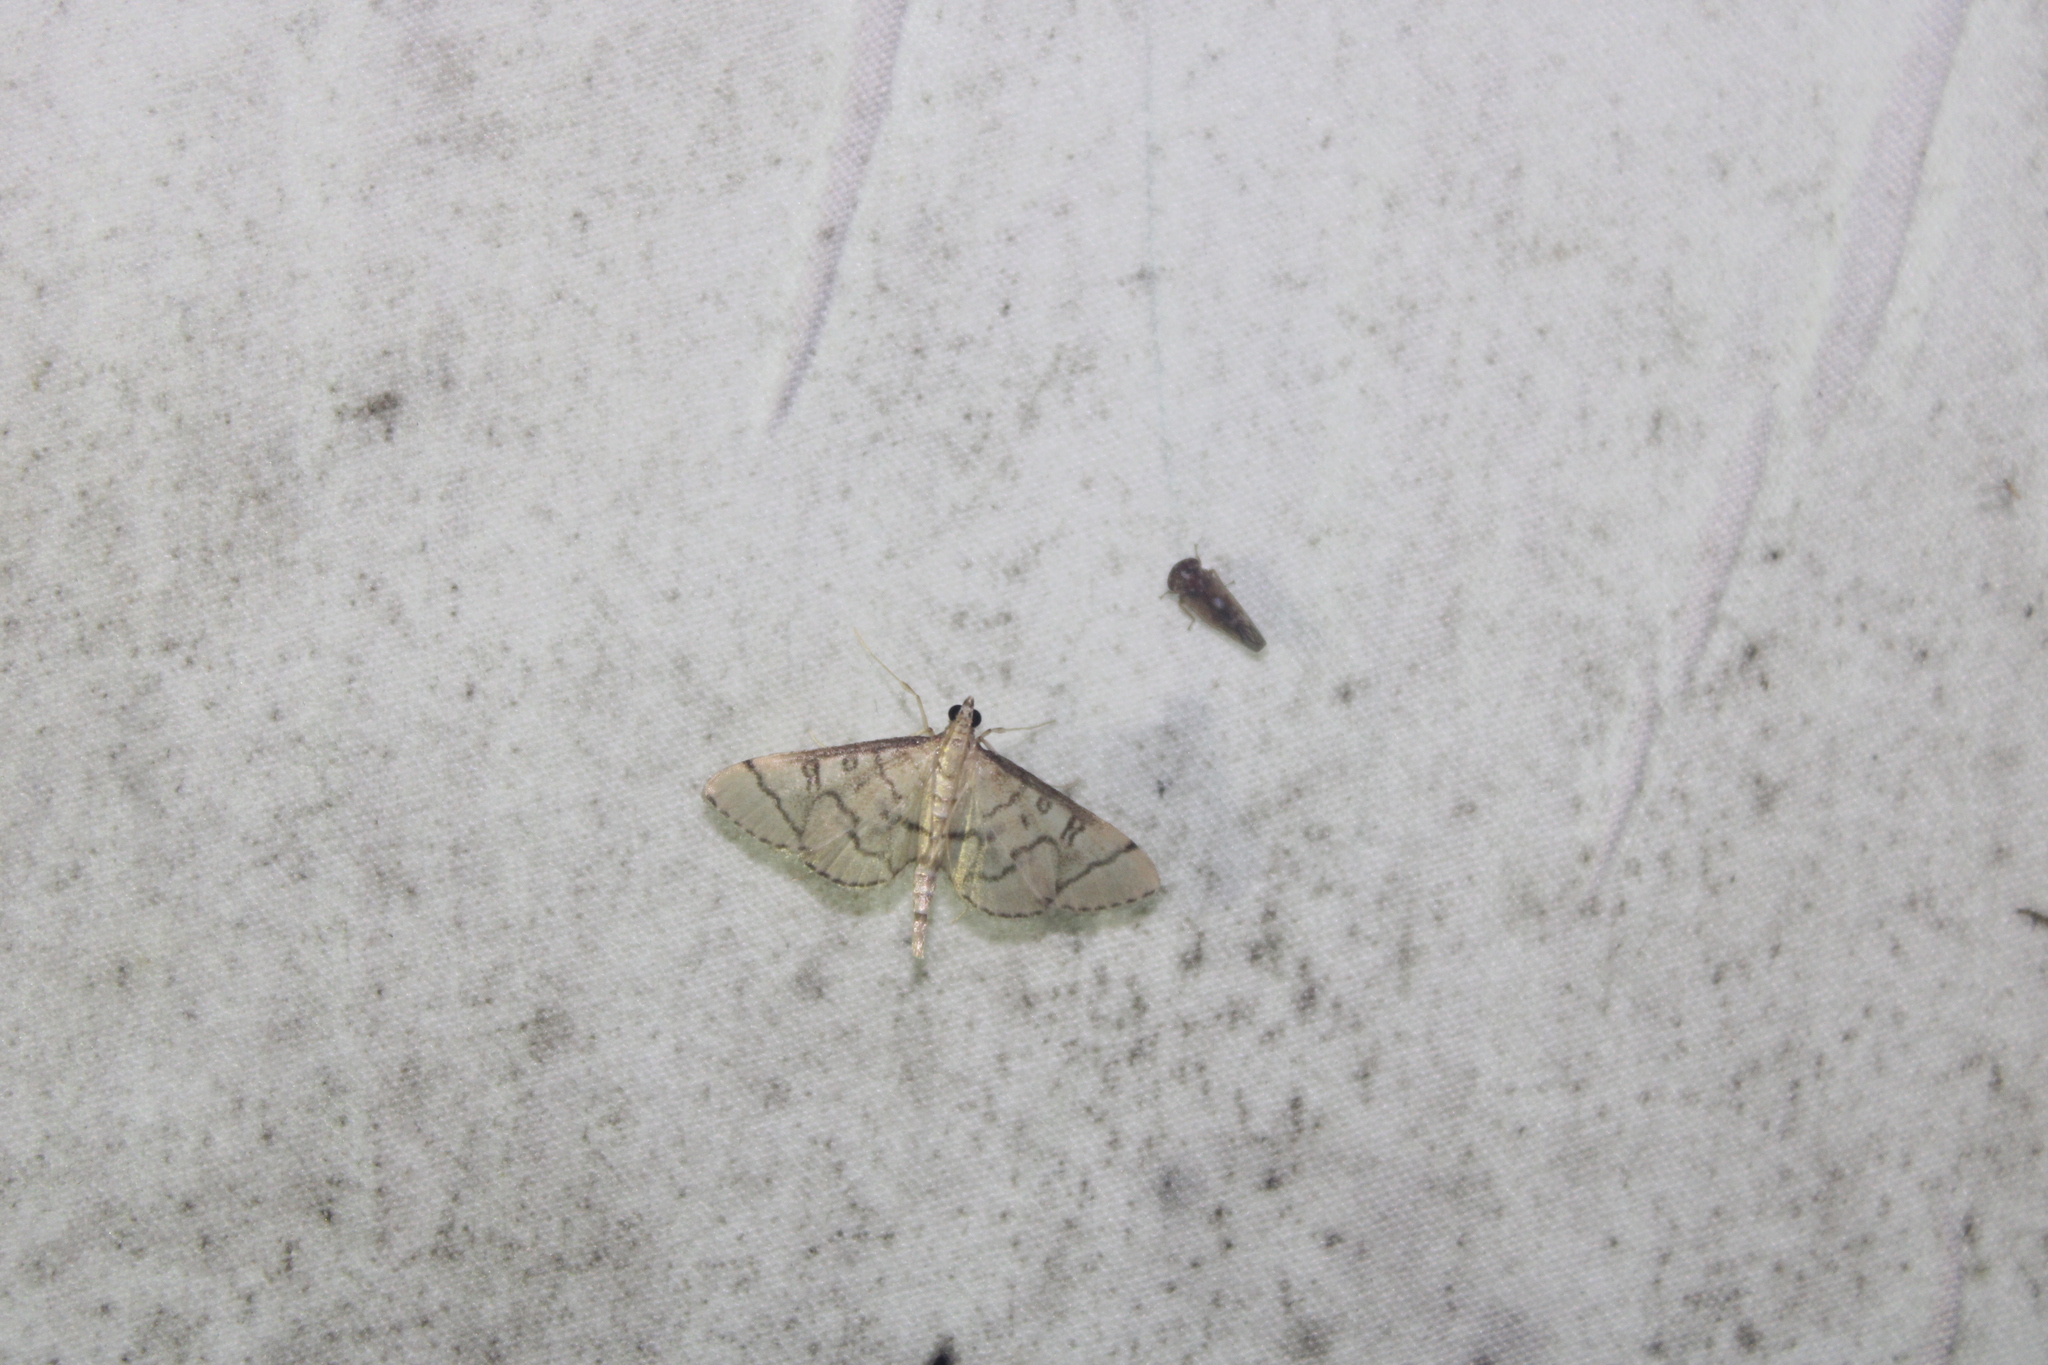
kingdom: Animalia
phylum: Arthropoda
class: Insecta
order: Lepidoptera
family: Crambidae
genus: Lamprosema
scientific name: Lamprosema Blepharomastix ranalis
